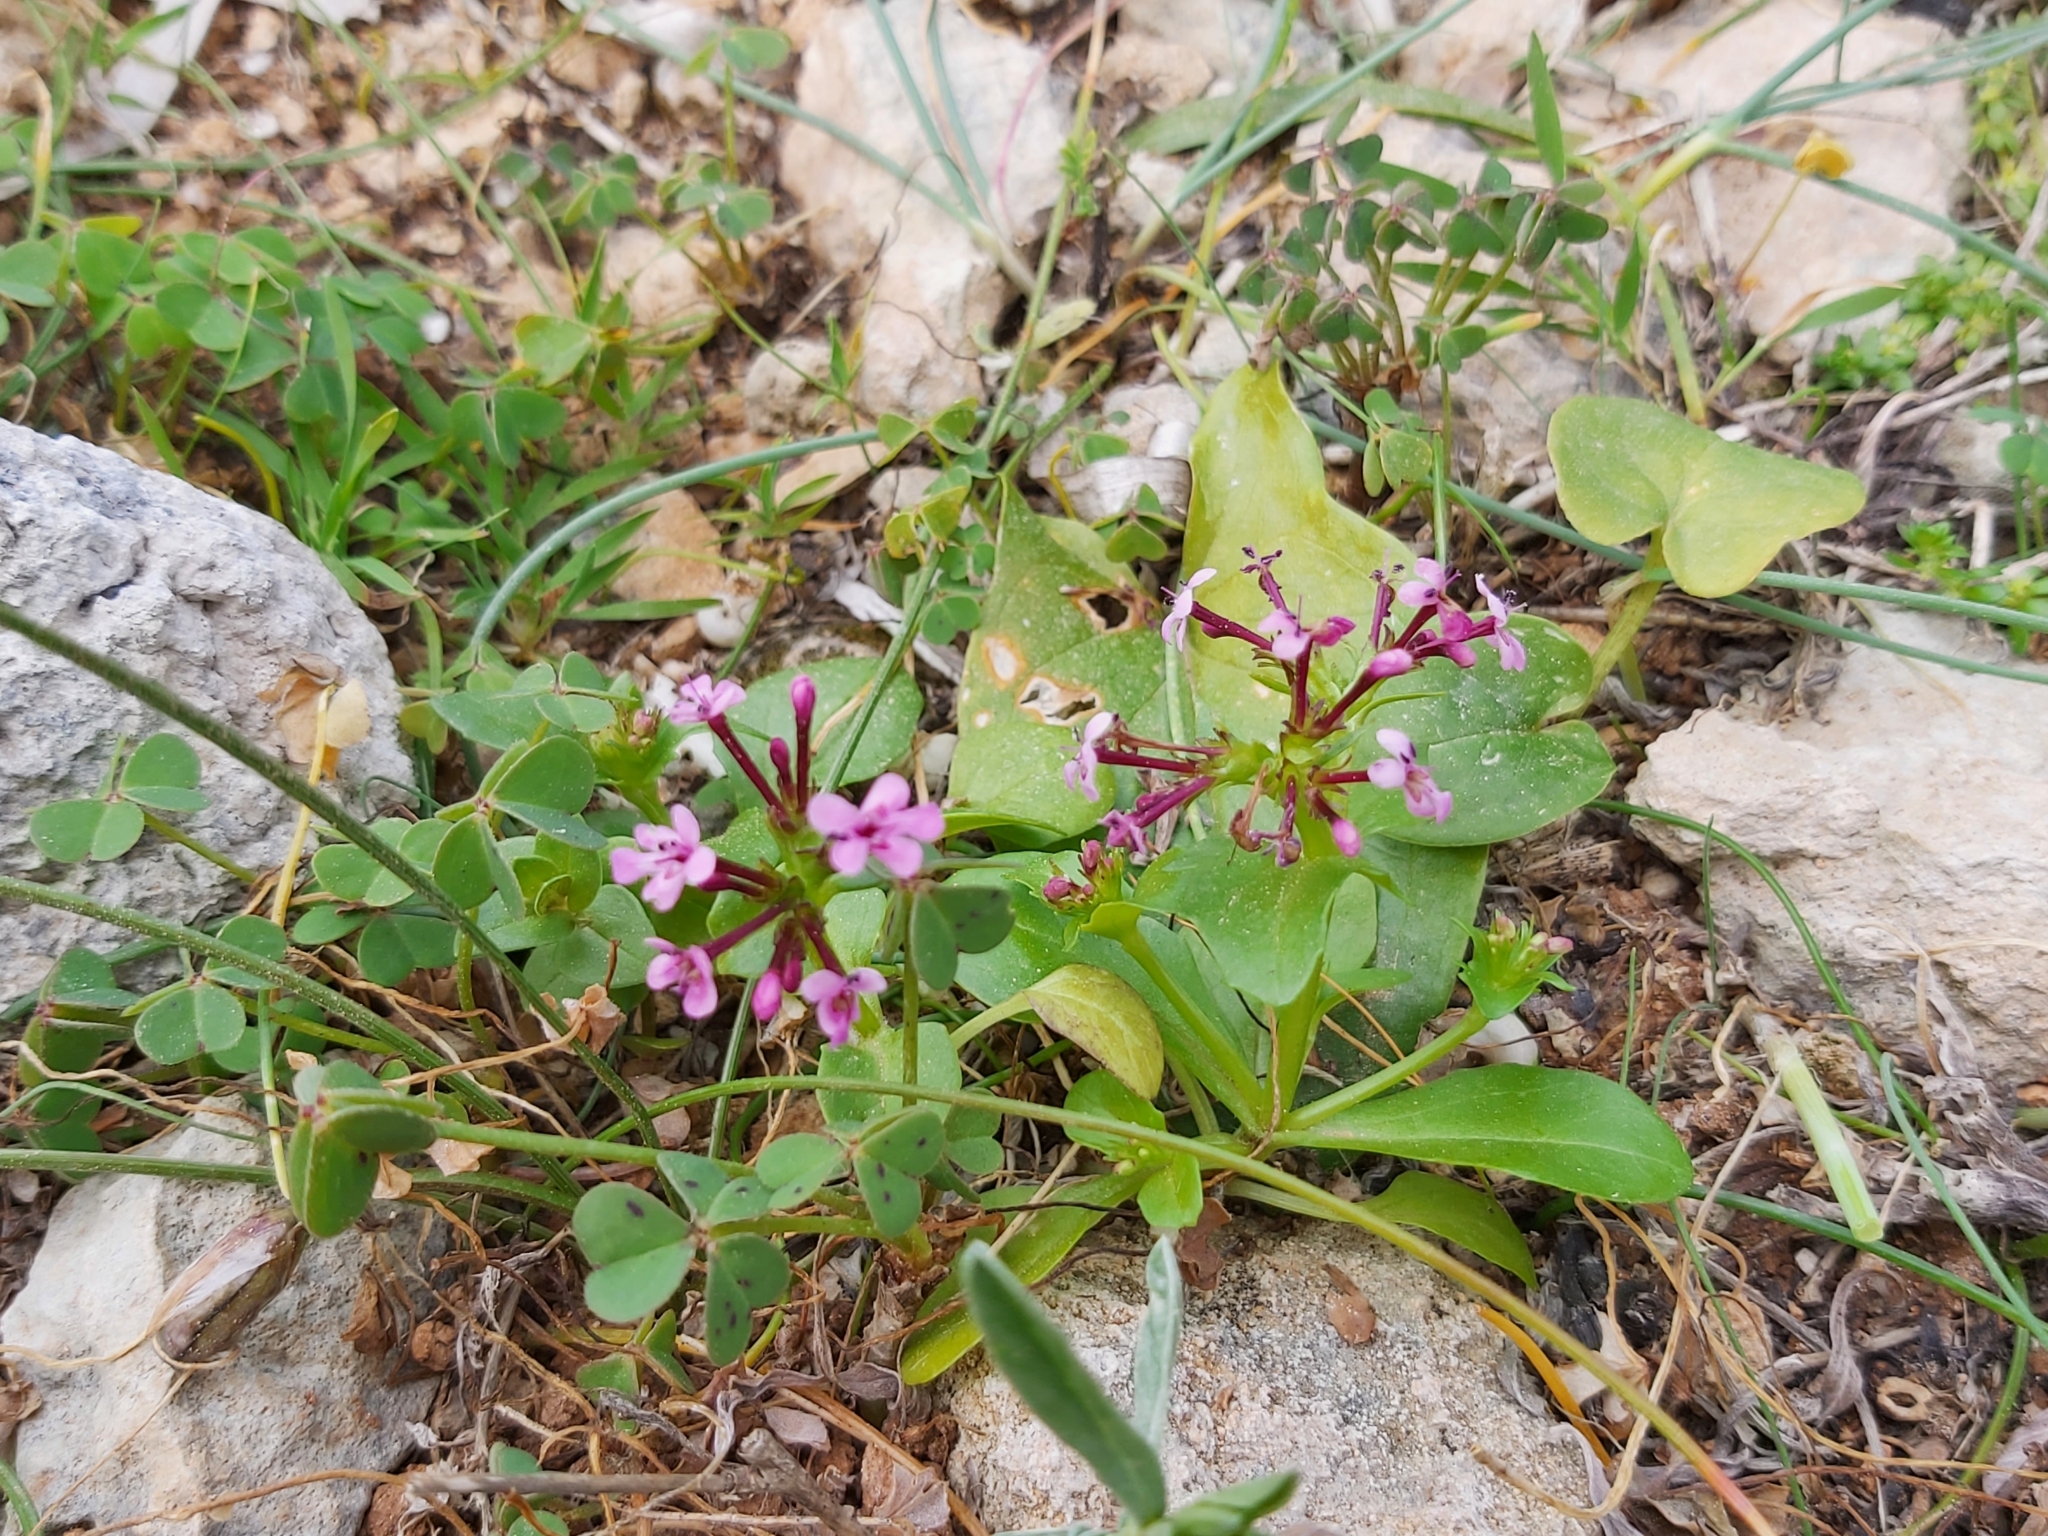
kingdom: Plantae
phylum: Tracheophyta
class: Magnoliopsida
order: Dipsacales
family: Caprifoliaceae
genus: Fedia
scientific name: Fedia graciliflora
